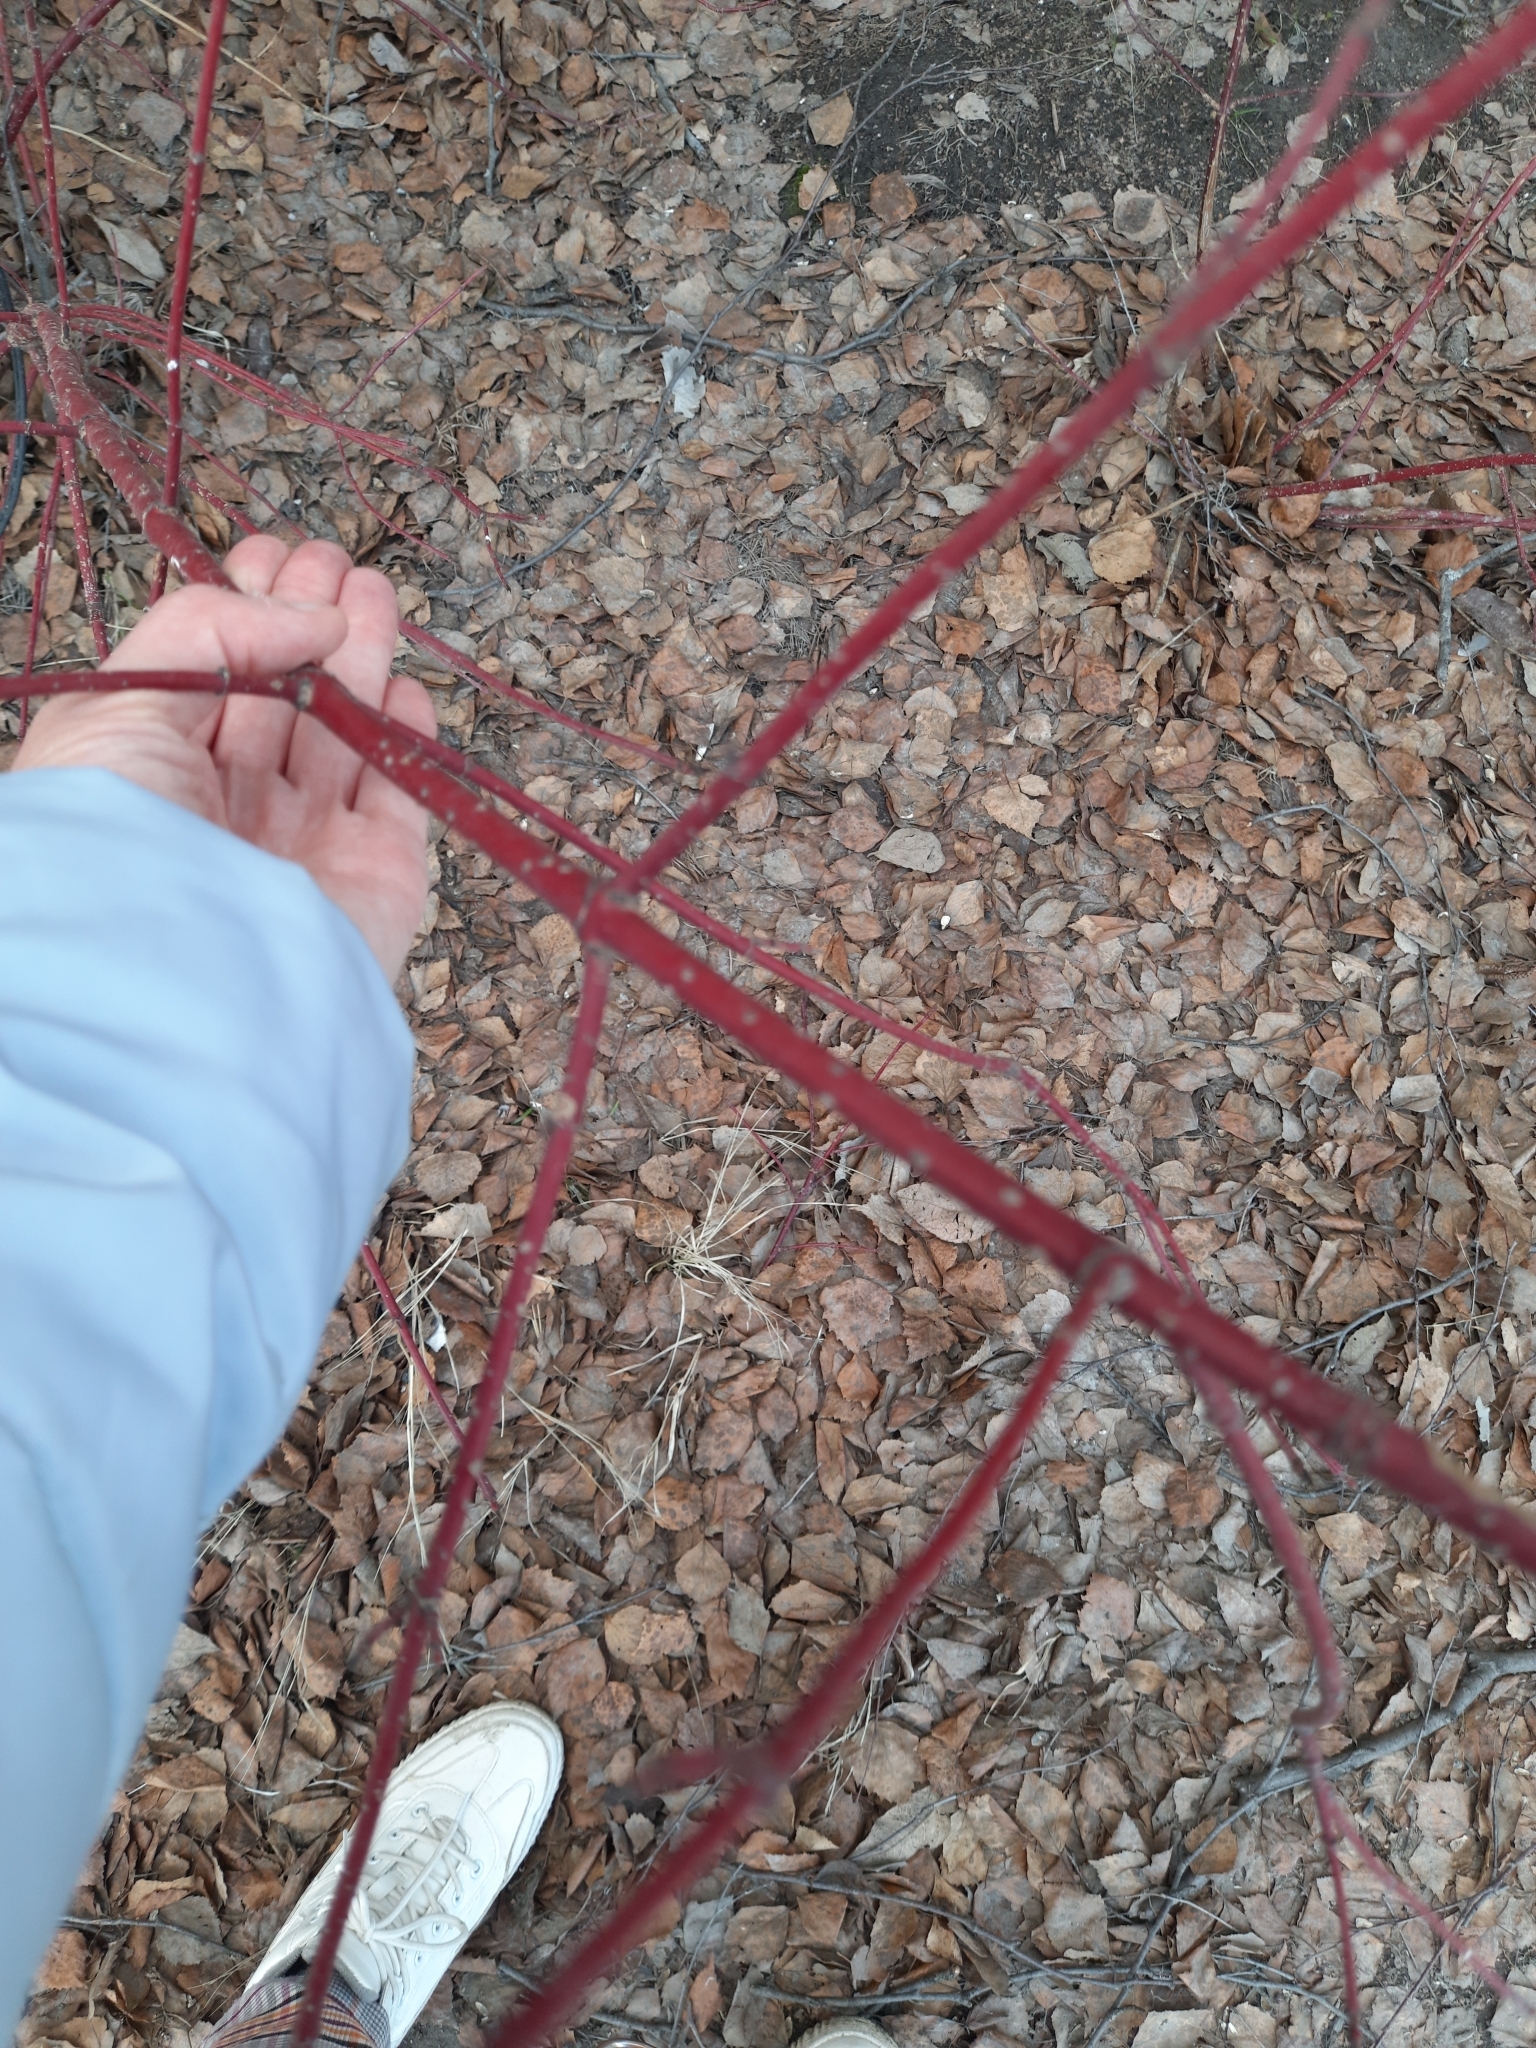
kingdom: Plantae
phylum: Tracheophyta
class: Magnoliopsida
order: Cornales
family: Cornaceae
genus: Cornus
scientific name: Cornus alba
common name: White dogwood
